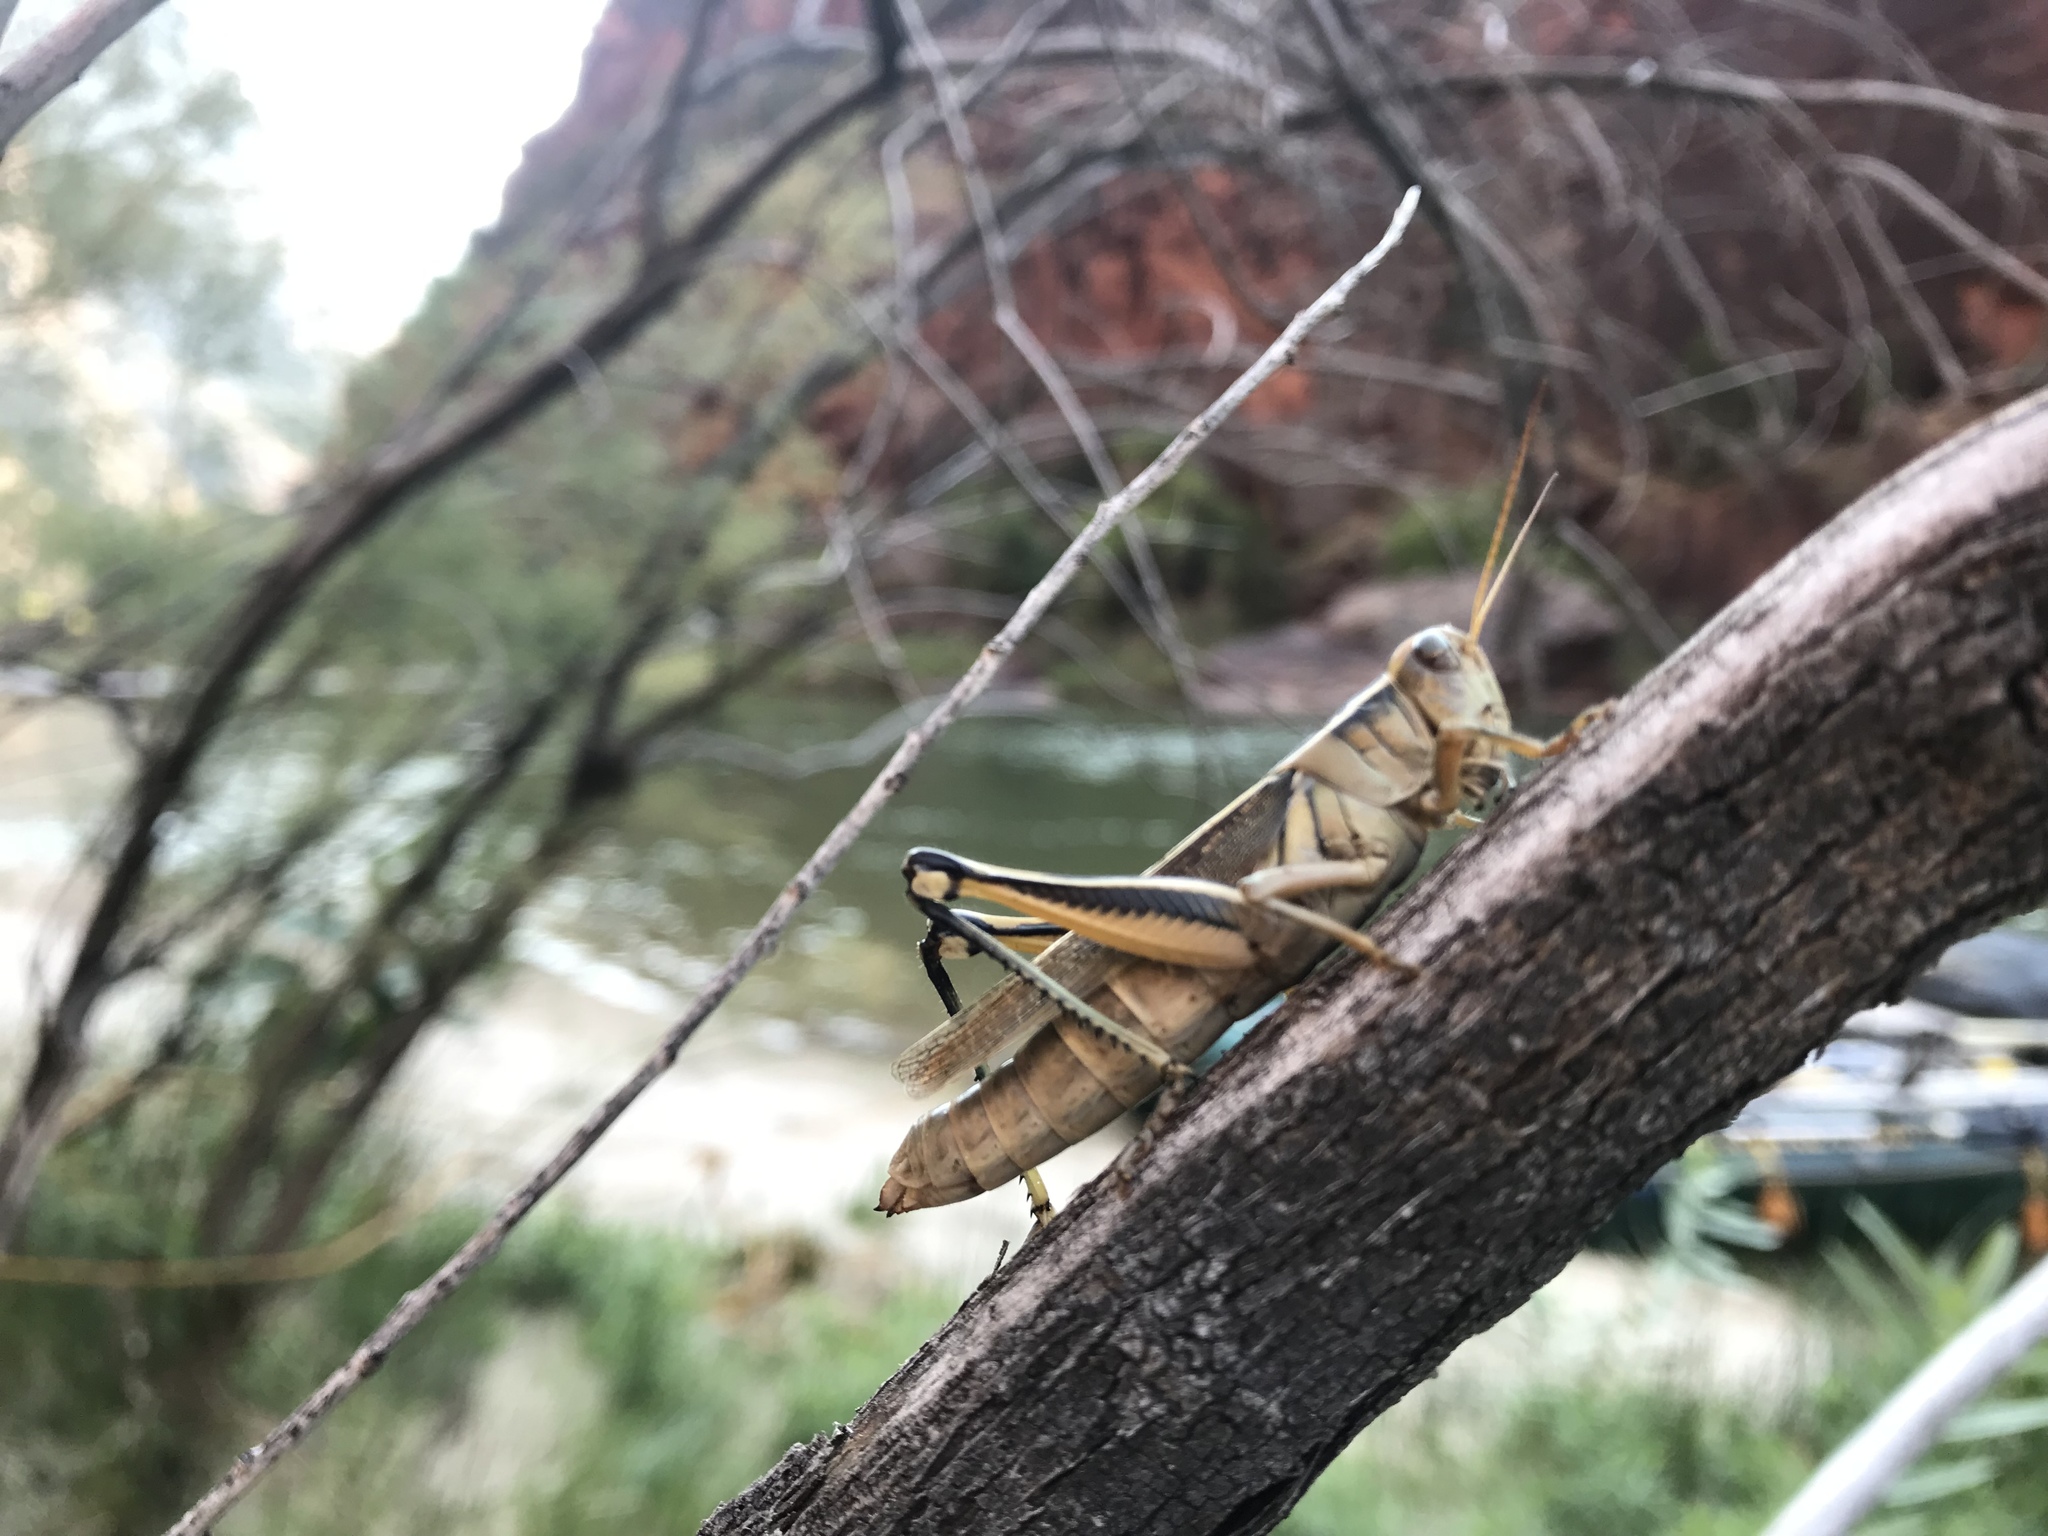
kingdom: Animalia
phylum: Arthropoda
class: Insecta
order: Orthoptera
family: Acrididae
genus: Melanoplus
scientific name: Melanoplus bivittatus
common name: Two-striped grasshopper
